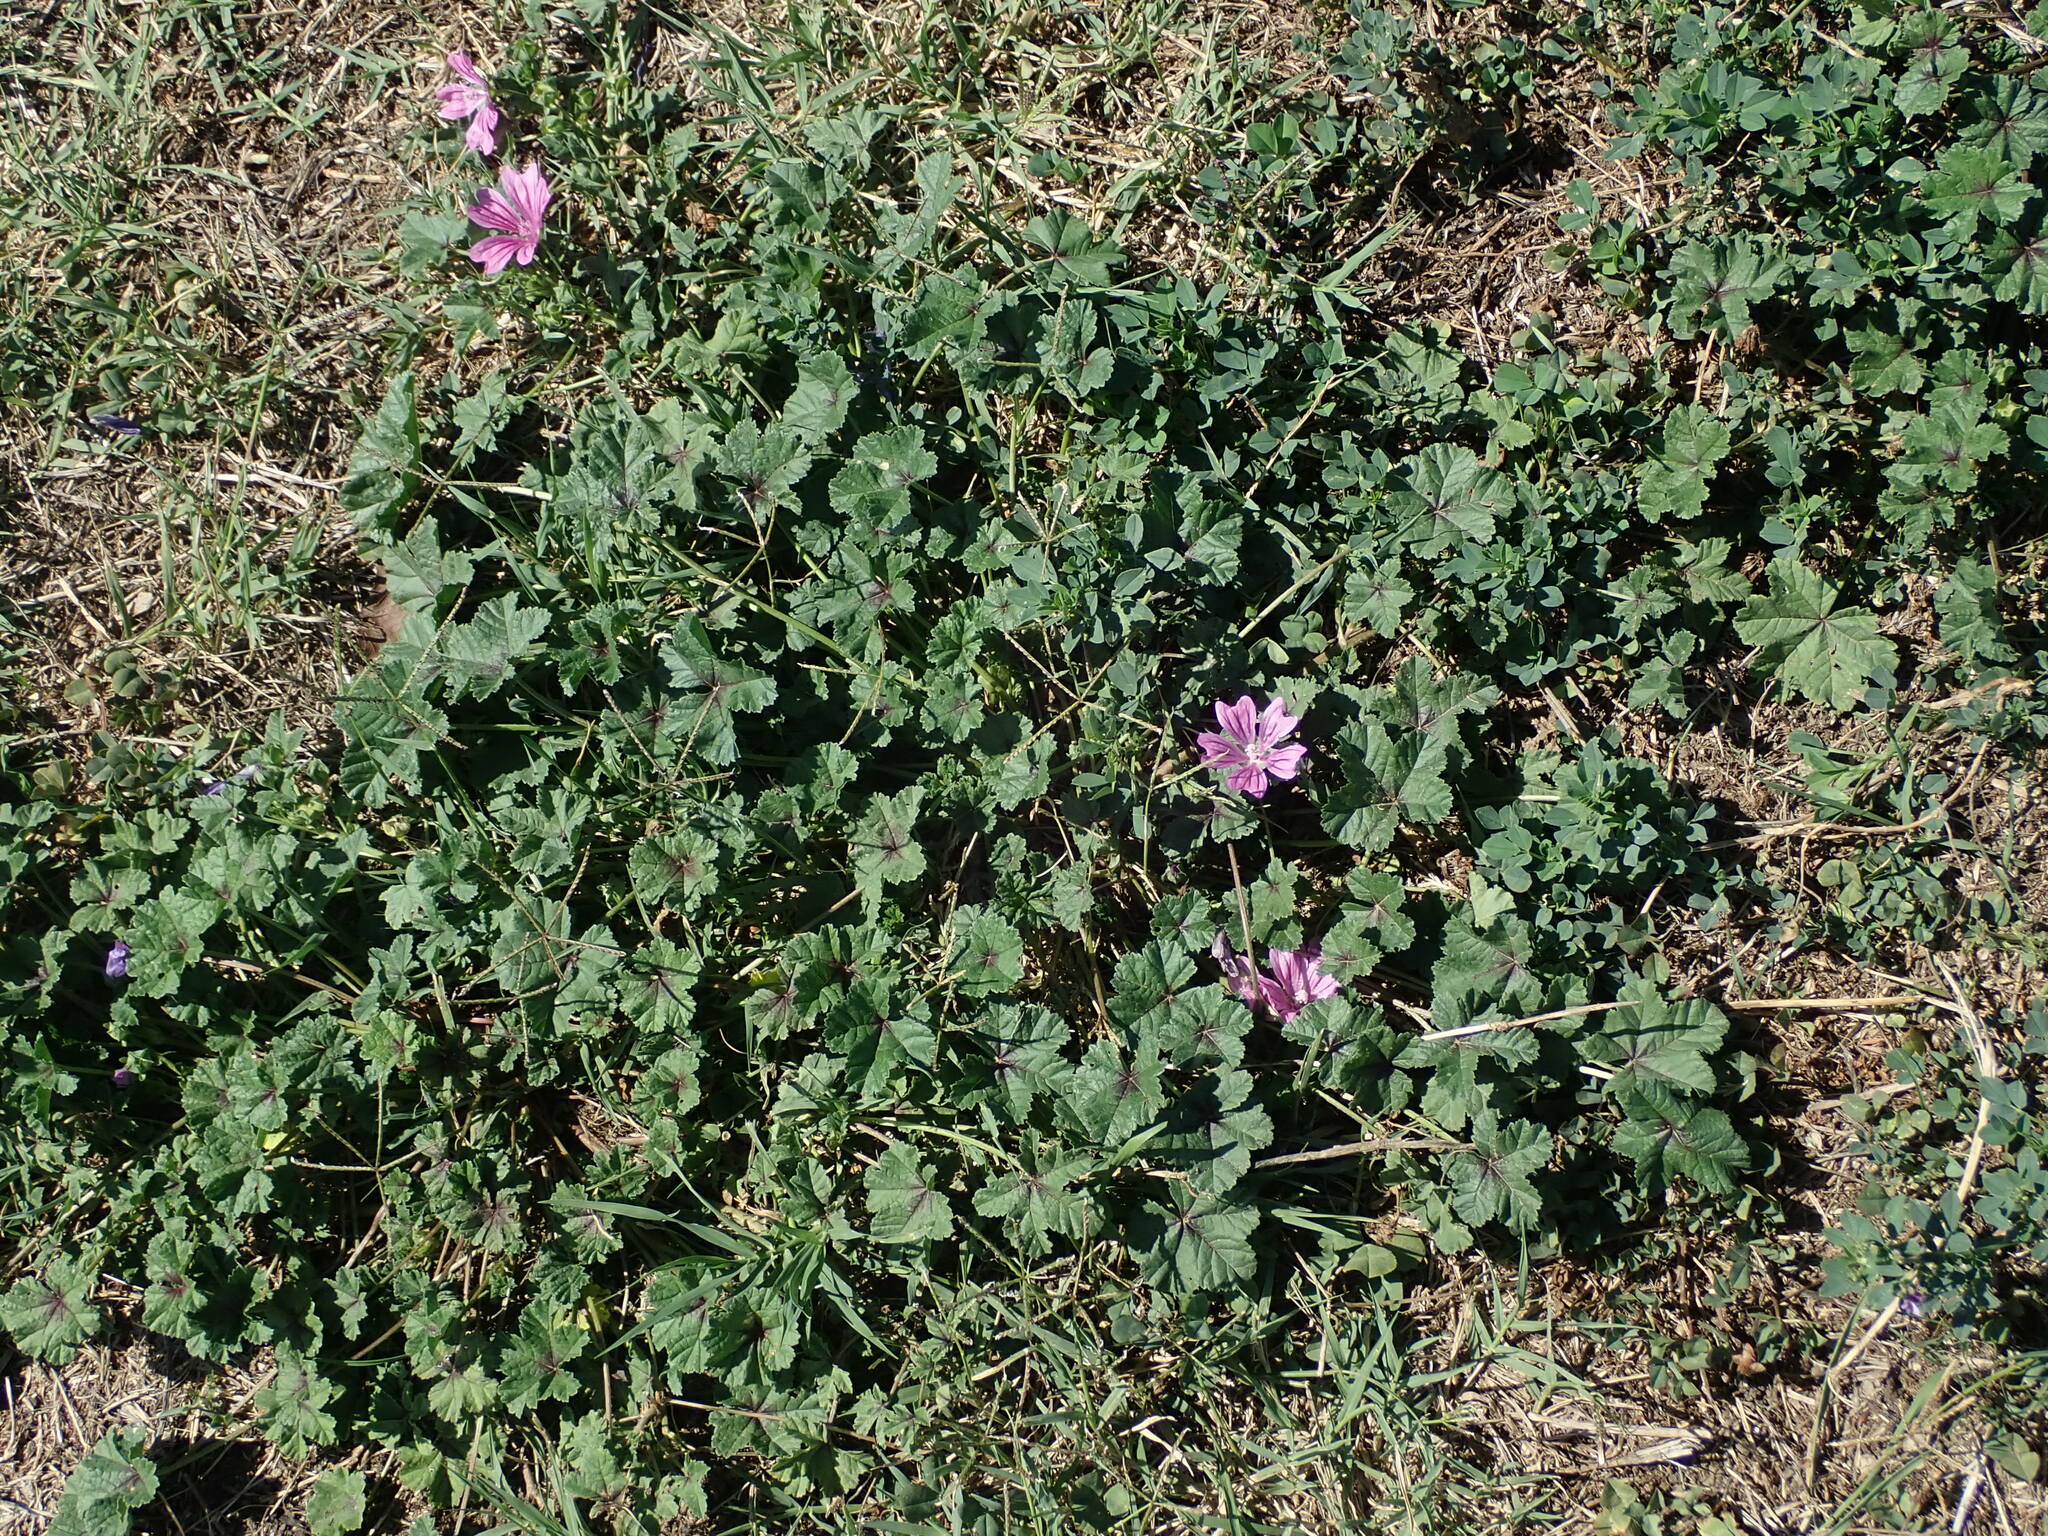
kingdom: Plantae
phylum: Tracheophyta
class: Magnoliopsida
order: Malvales
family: Malvaceae
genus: Malva
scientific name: Malva sylvestris
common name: Common mallow
